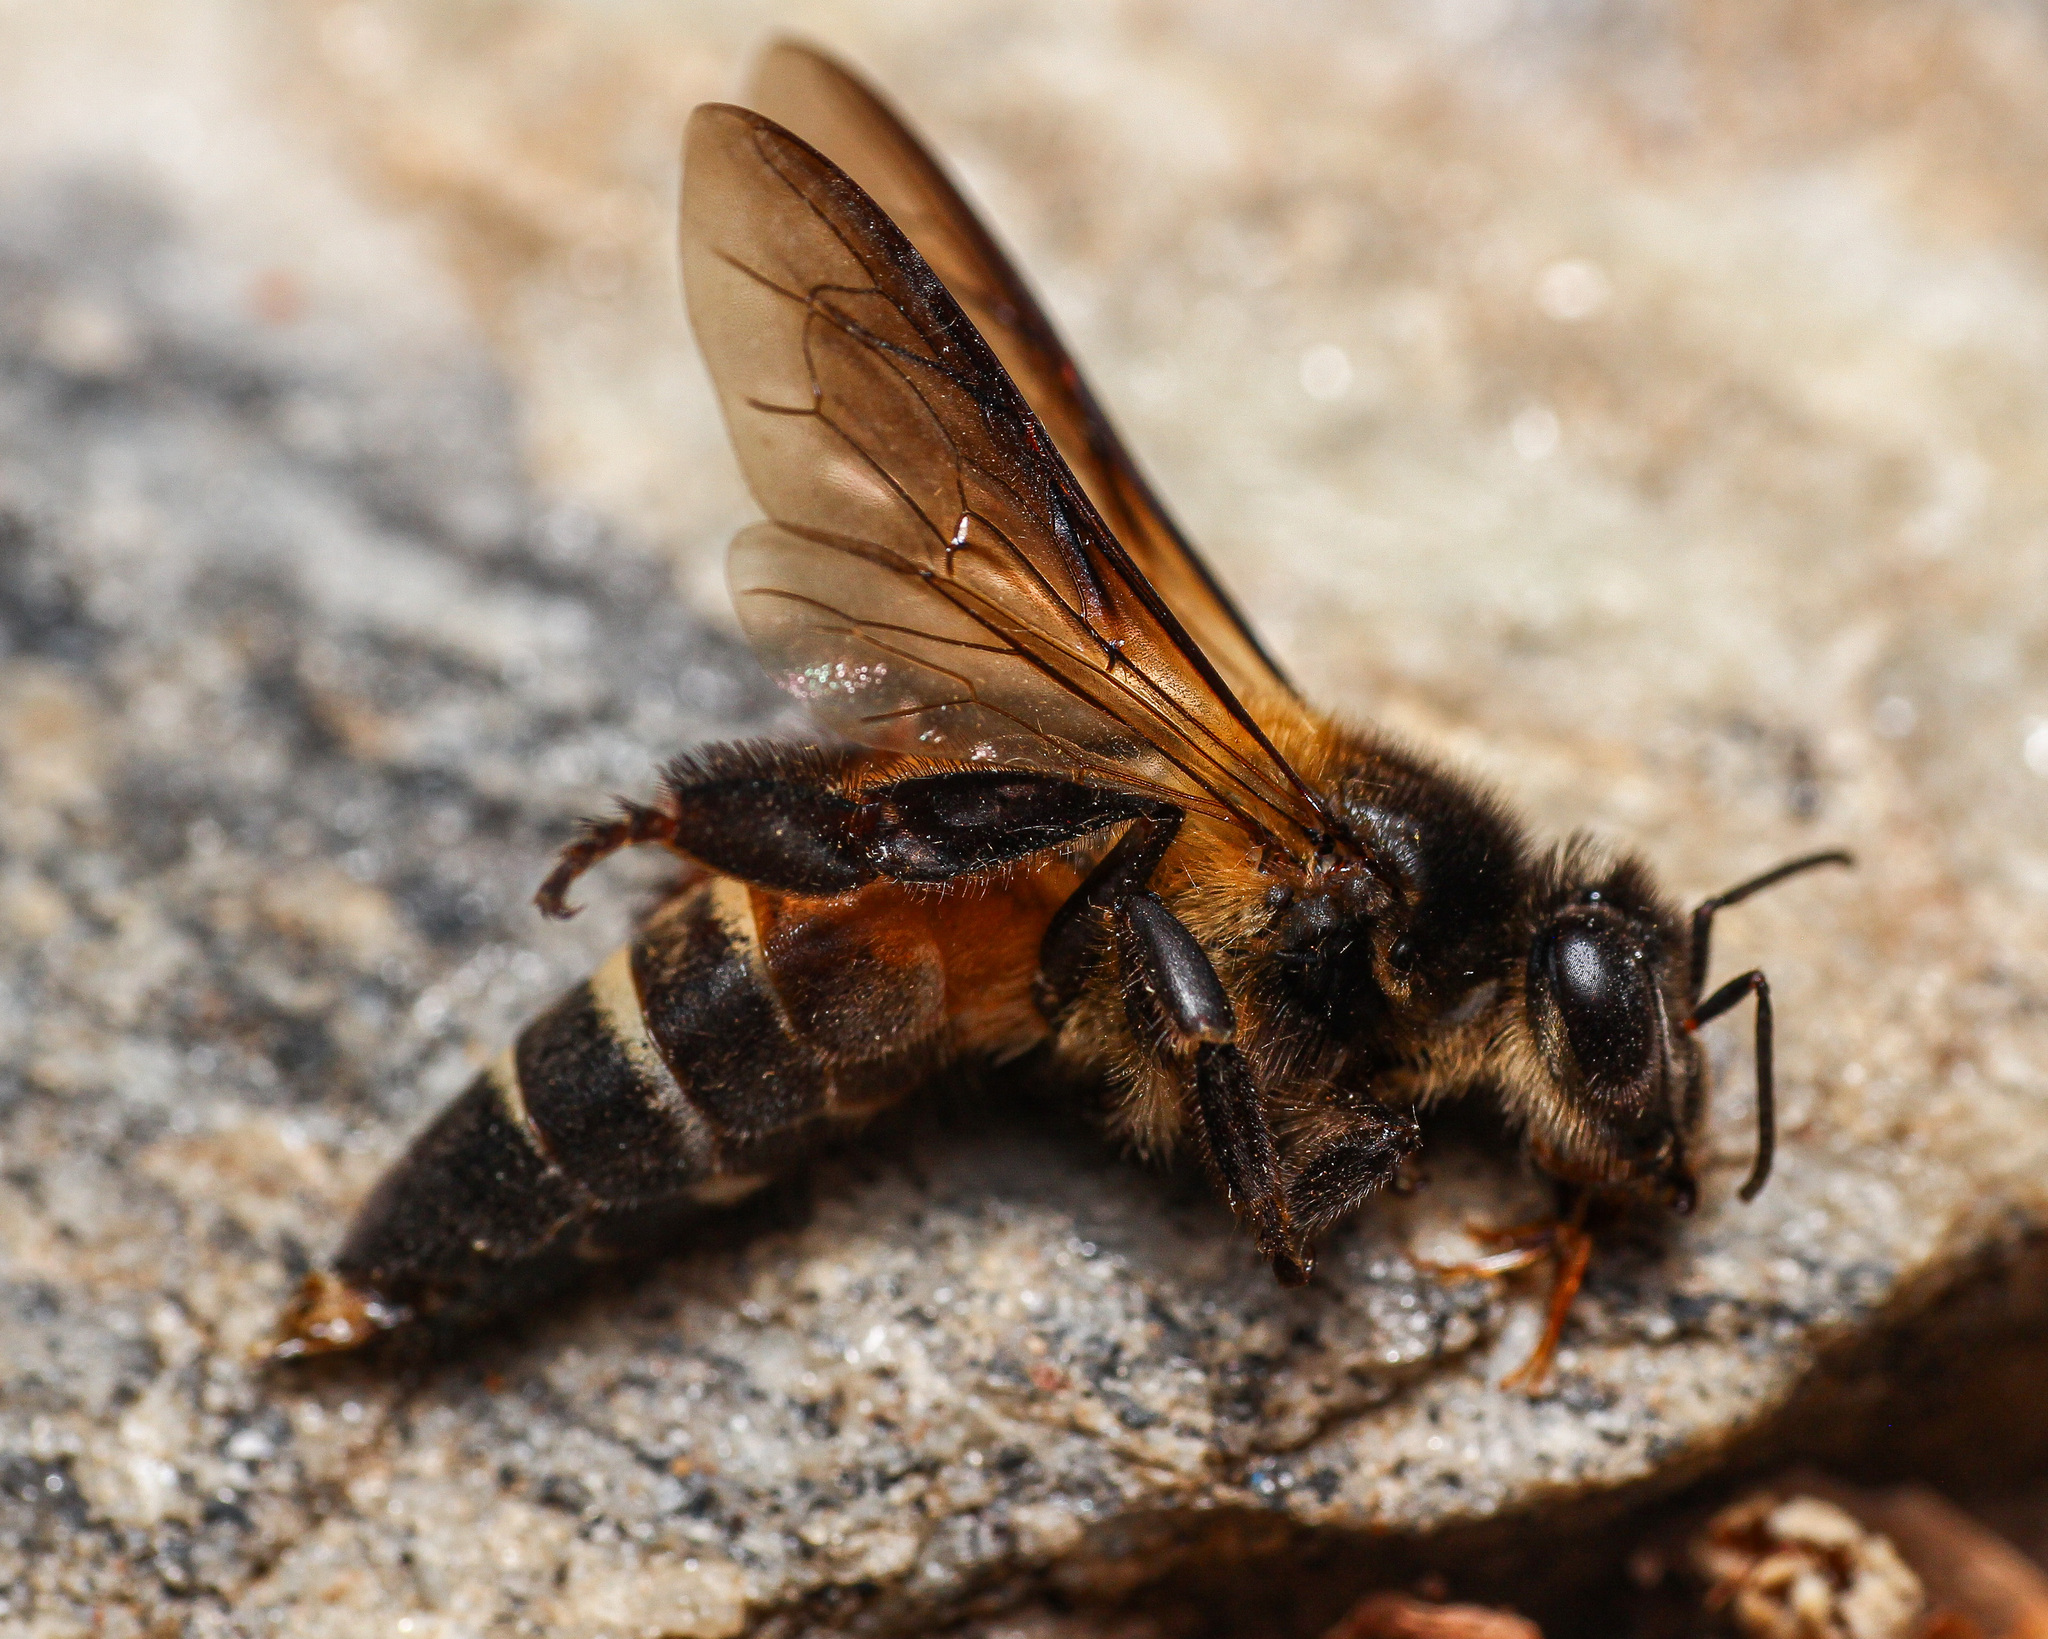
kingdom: Animalia
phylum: Arthropoda
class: Insecta
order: Hymenoptera
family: Apidae
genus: Apis
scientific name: Apis dorsata
